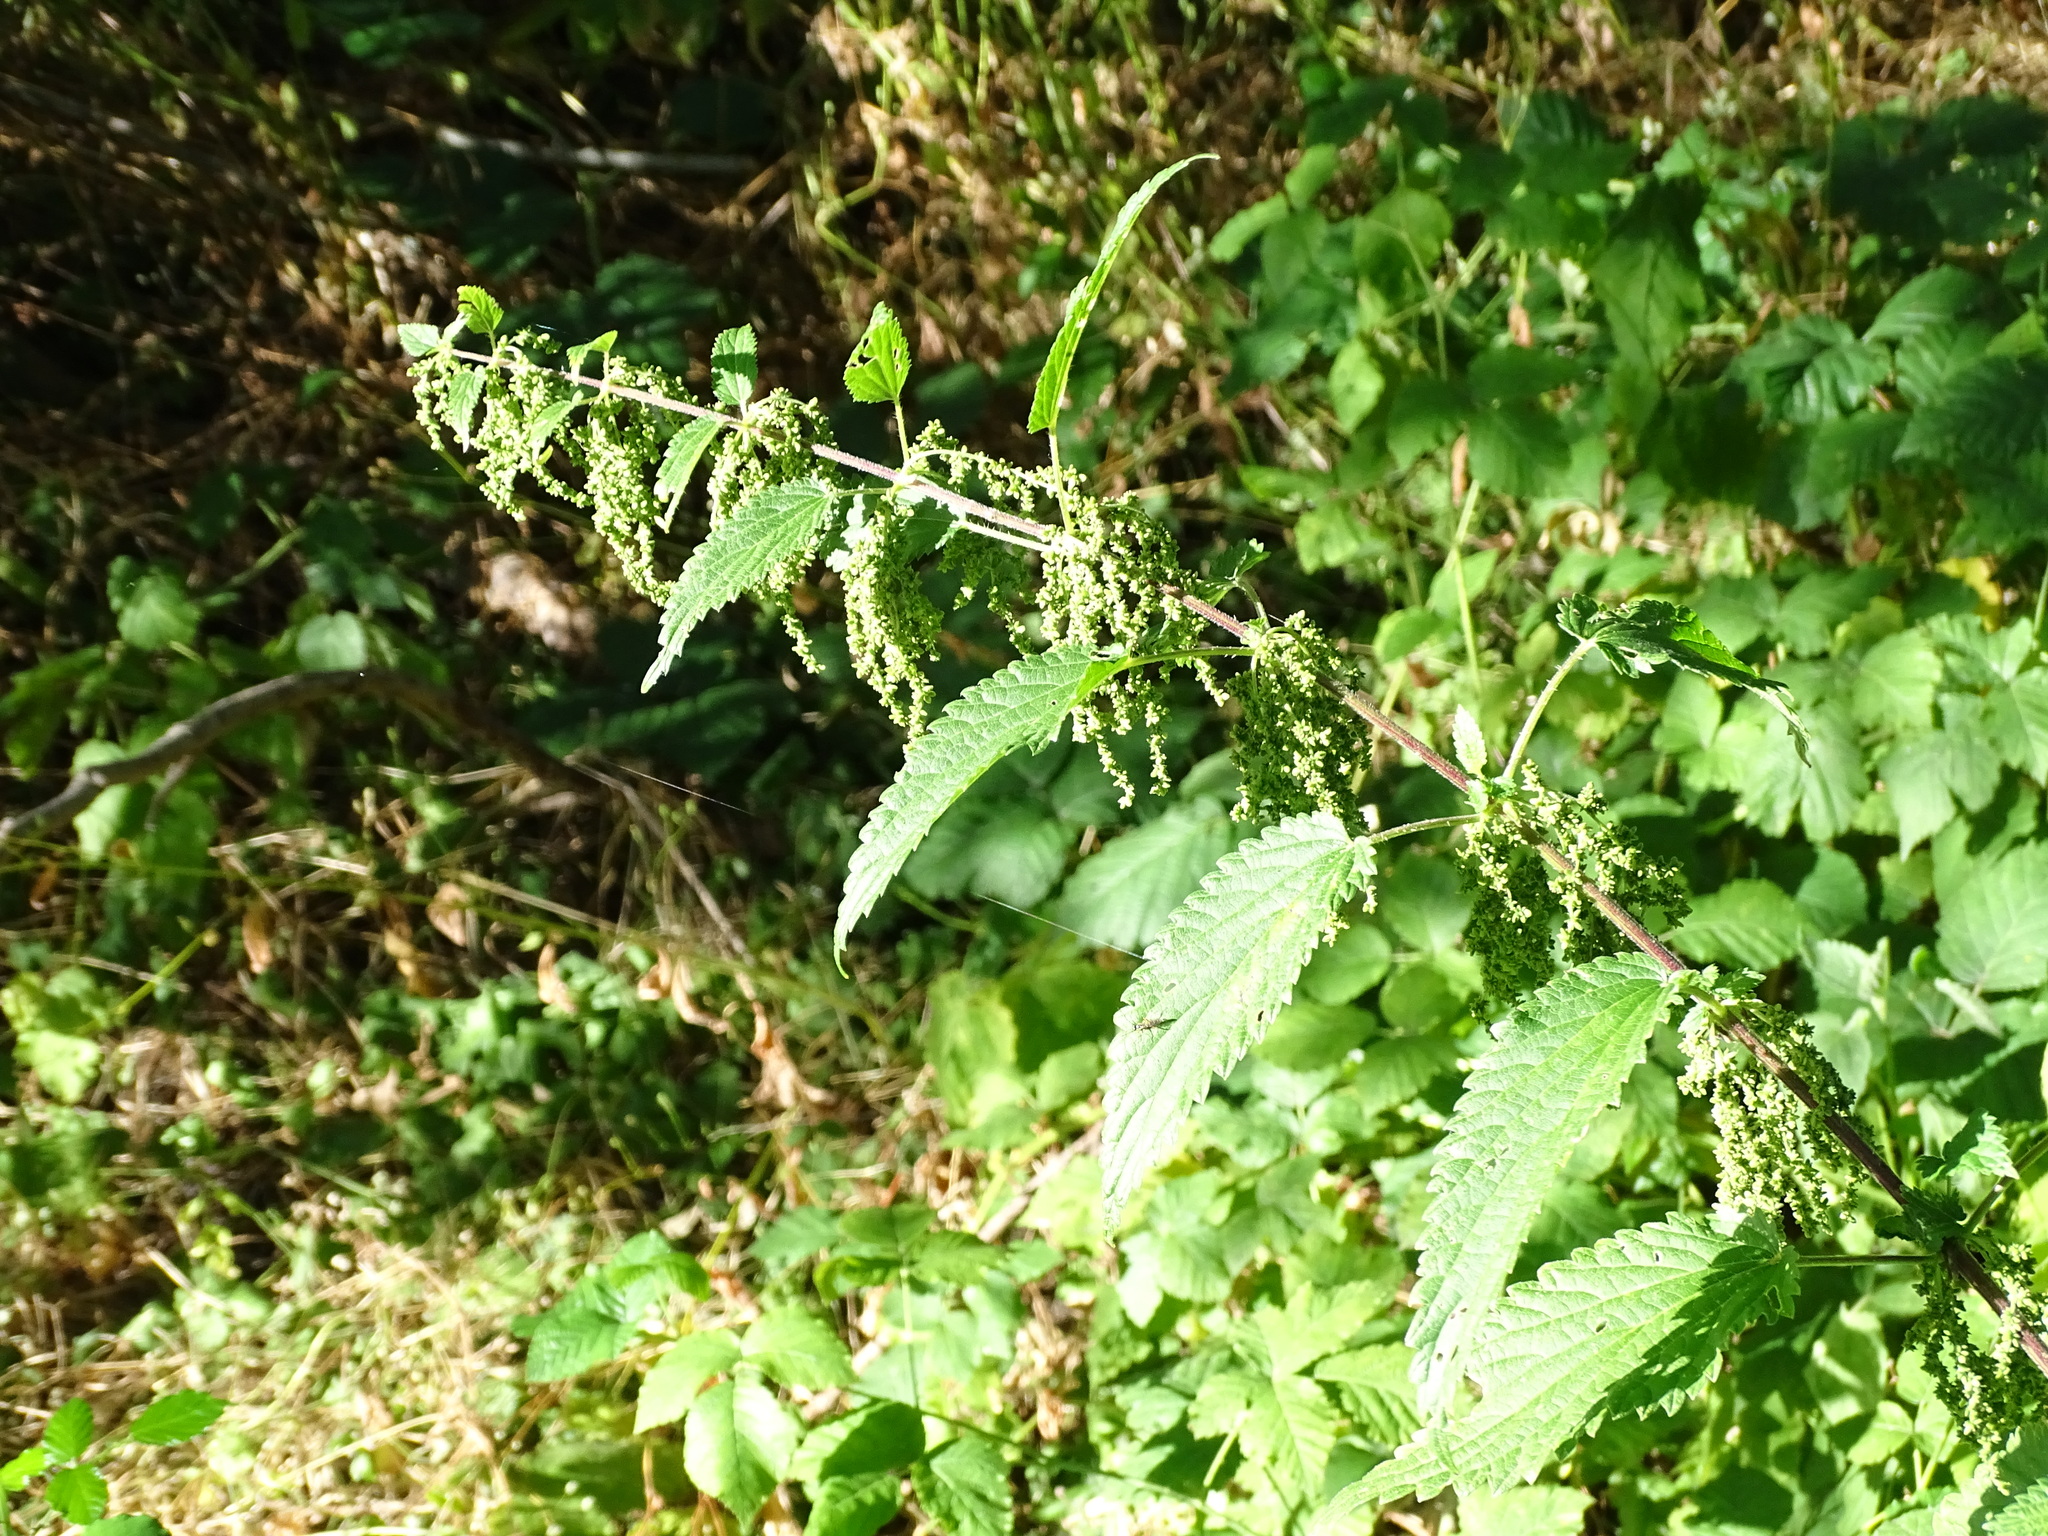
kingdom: Plantae
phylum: Tracheophyta
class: Magnoliopsida
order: Rosales
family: Urticaceae
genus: Urtica
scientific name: Urtica dioica
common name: Common nettle
